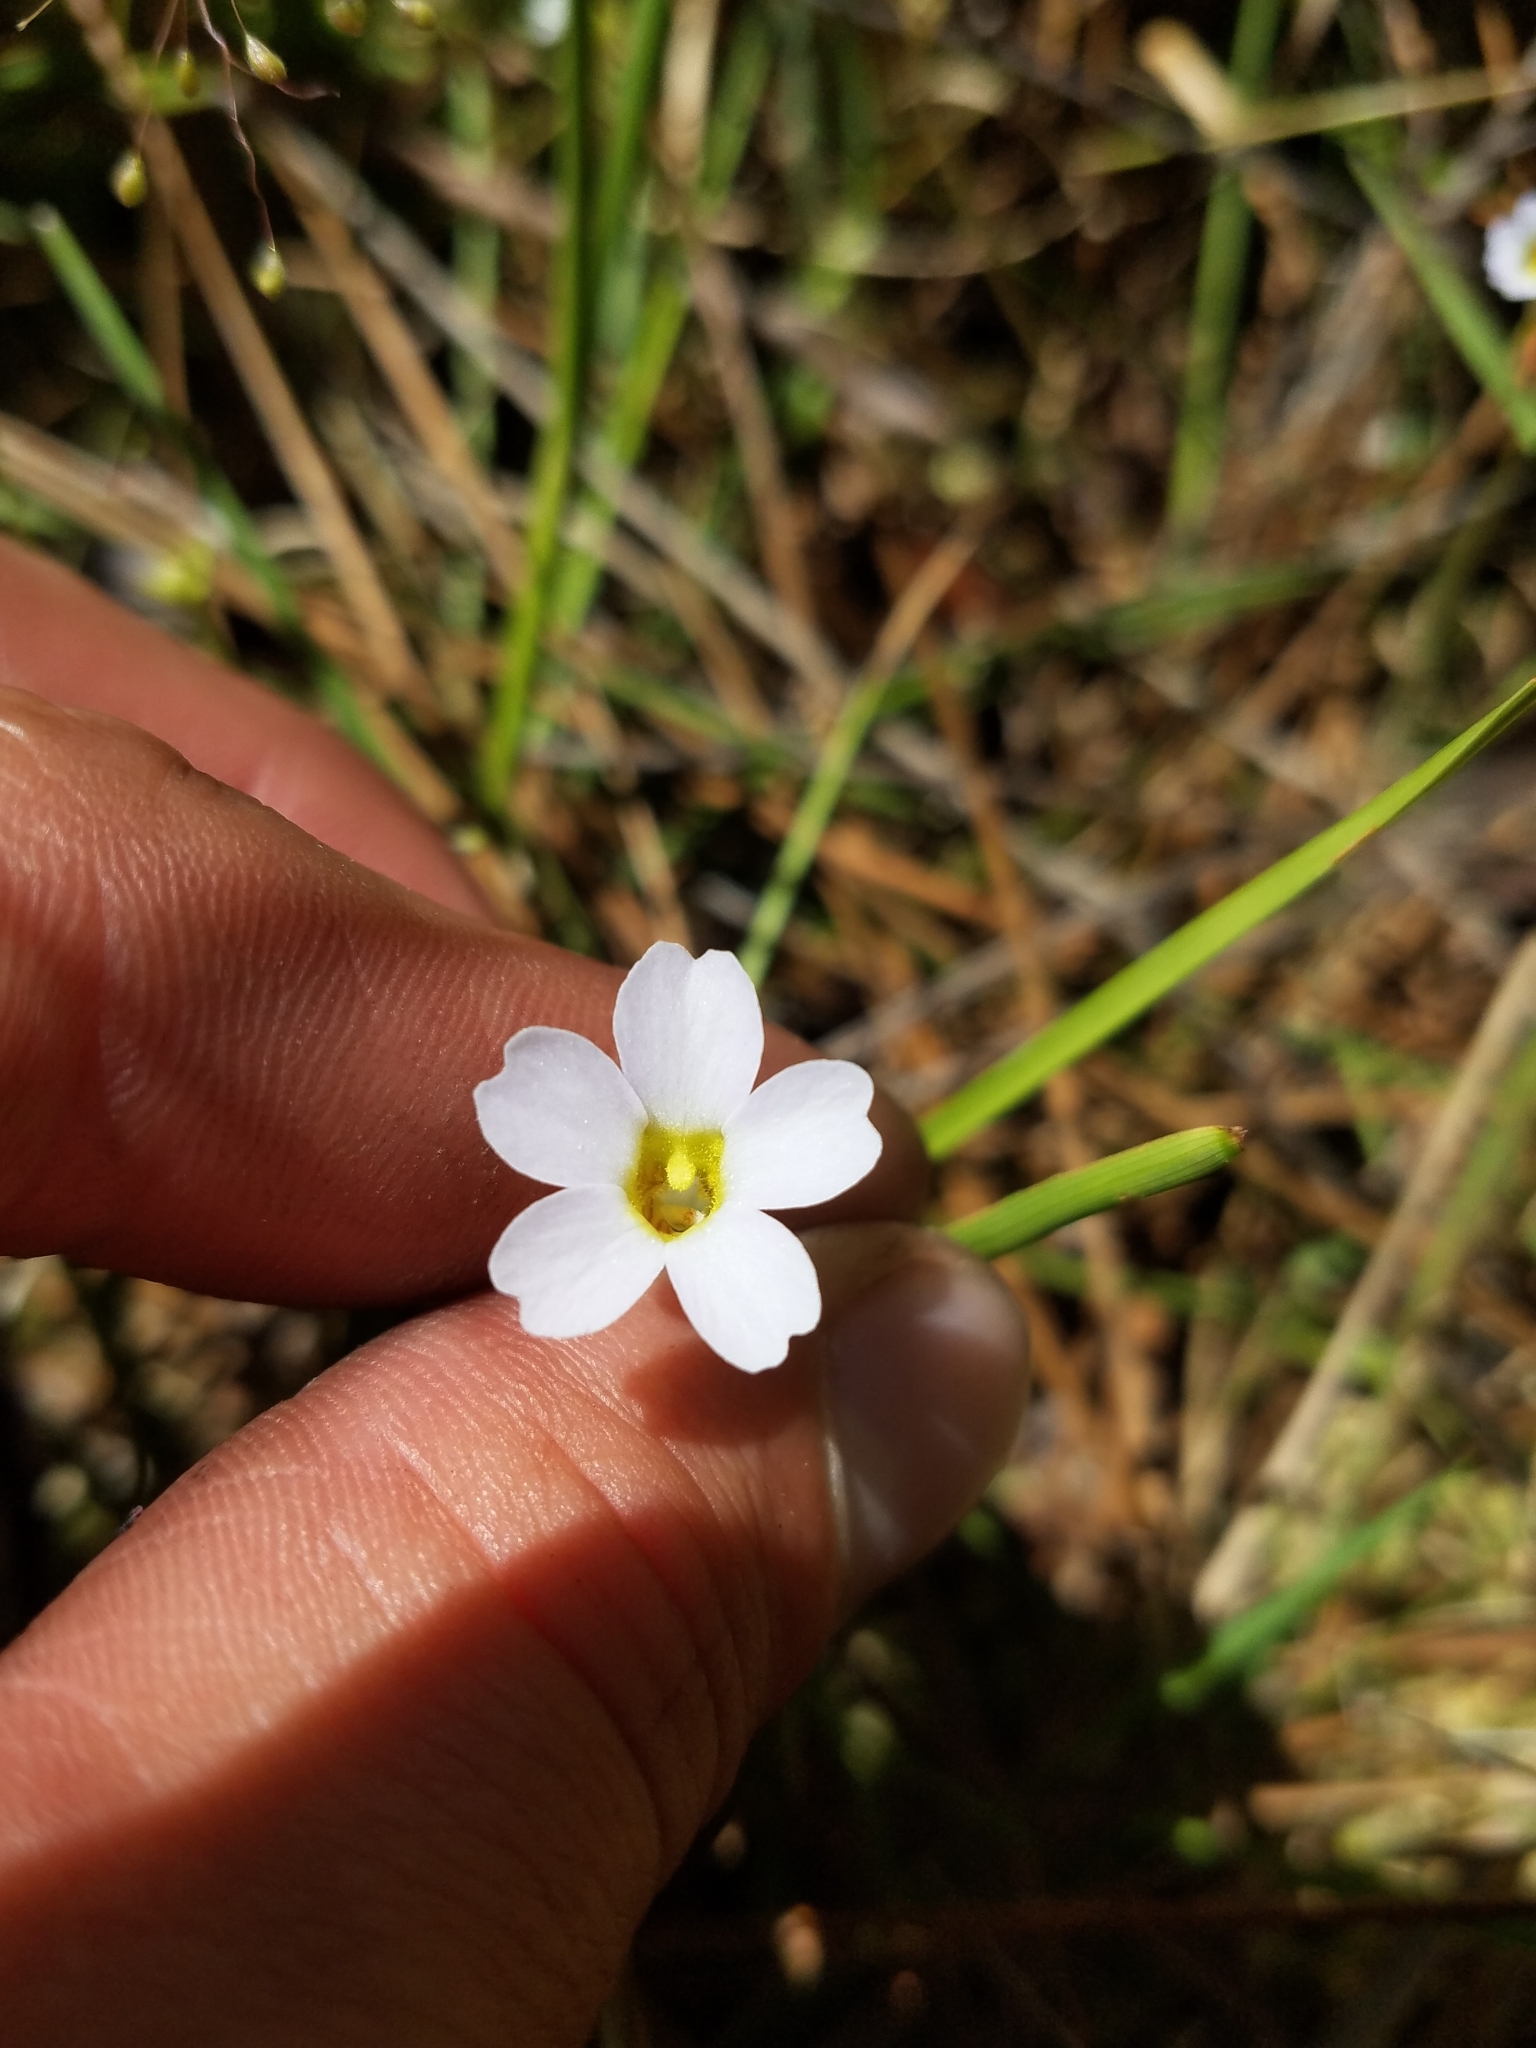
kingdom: Plantae
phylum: Tracheophyta
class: Magnoliopsida
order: Lamiales
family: Lentibulariaceae
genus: Pinguicula
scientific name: Pinguicula pumila
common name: Small butterwort
